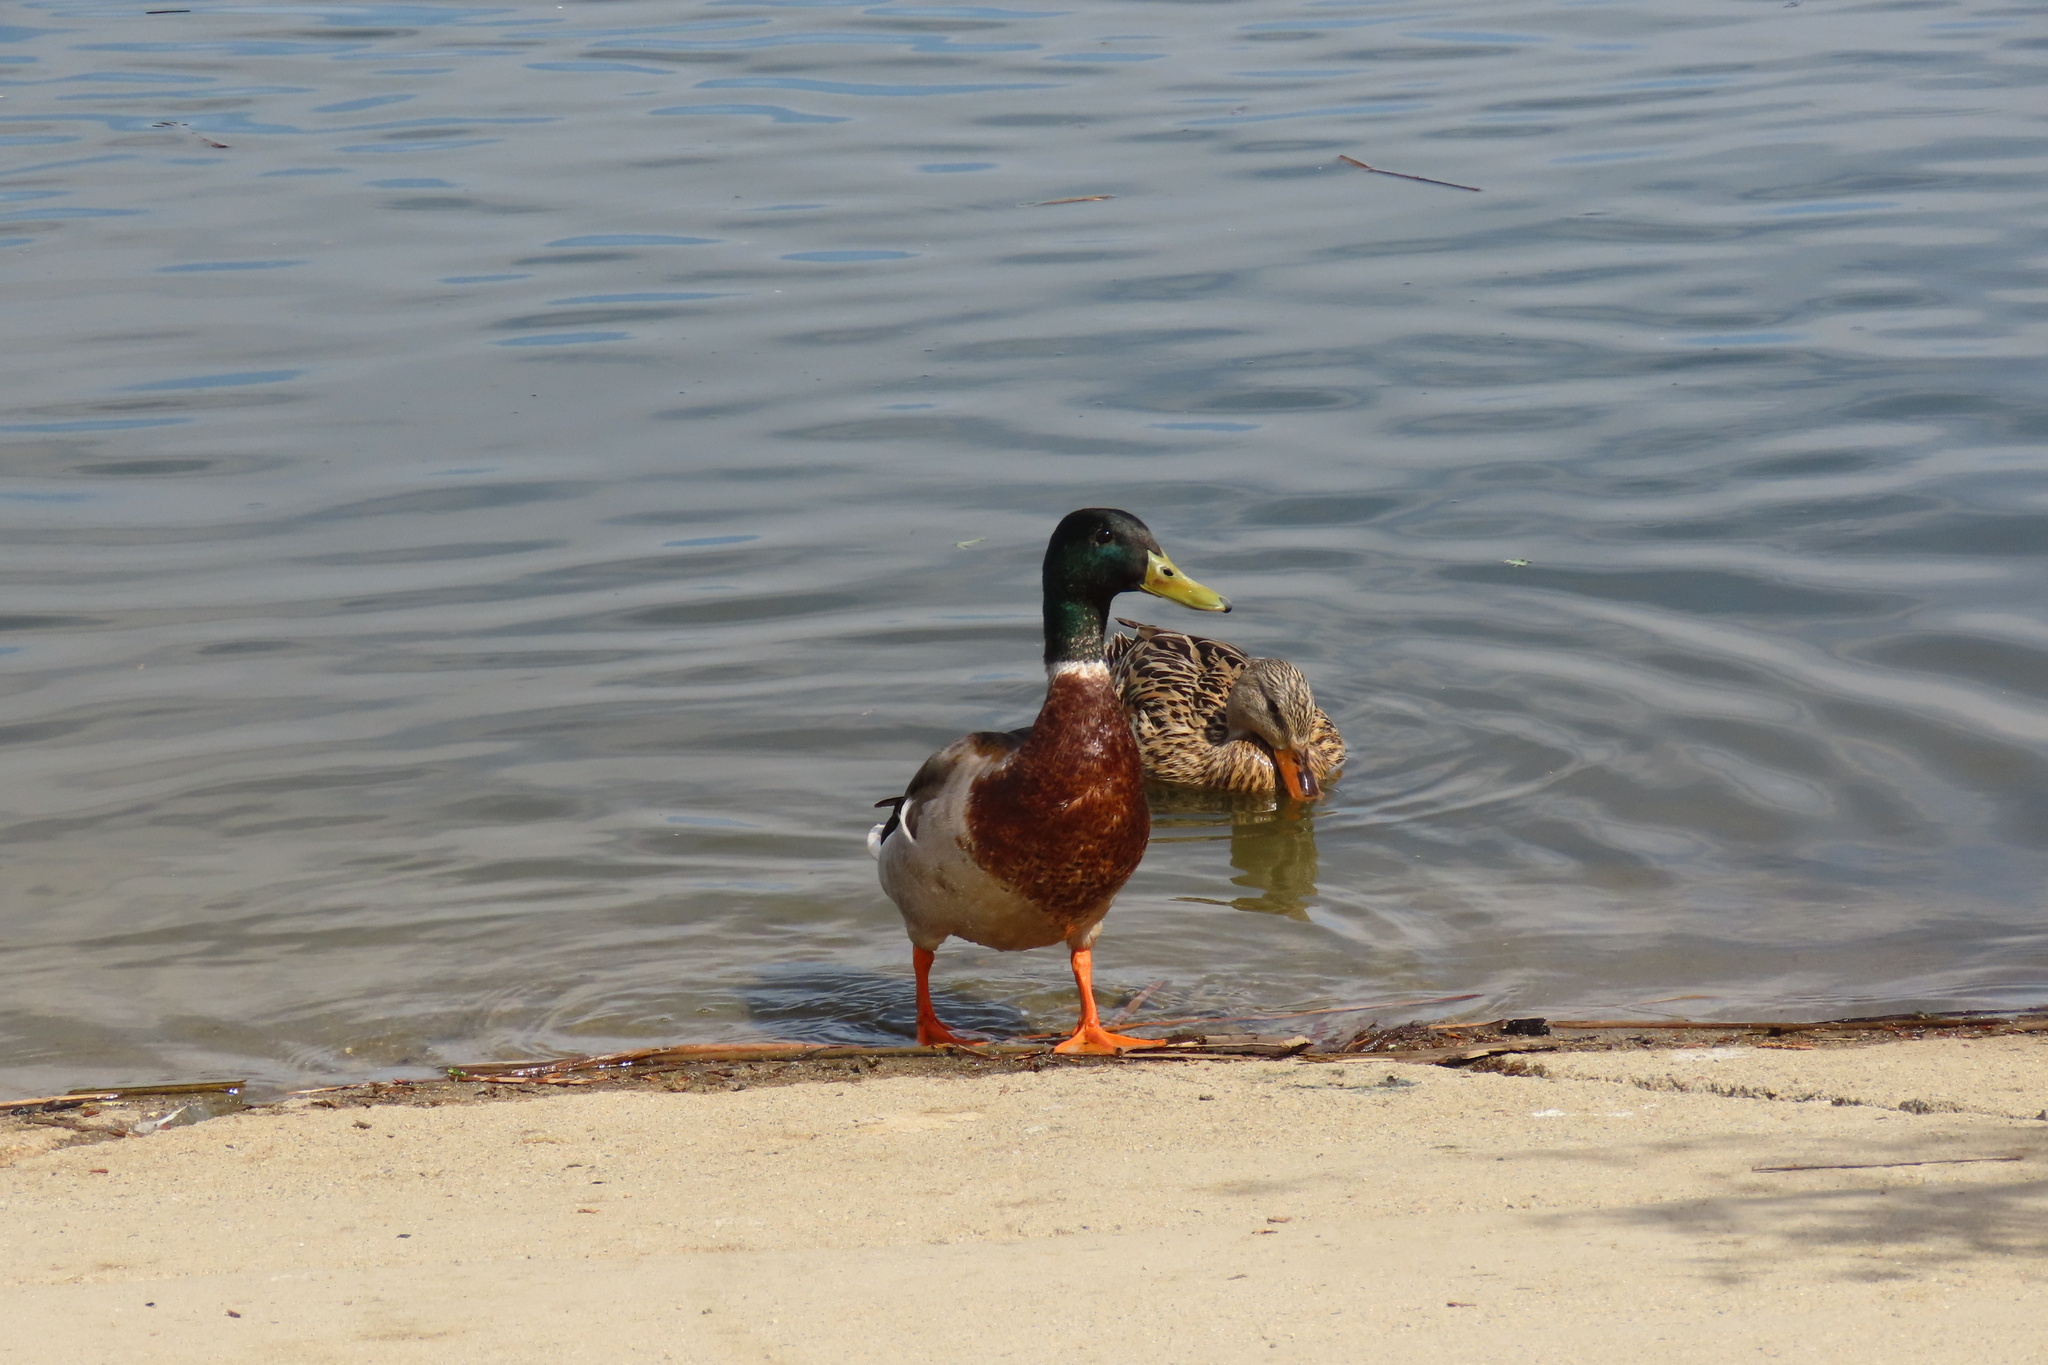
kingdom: Animalia
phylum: Chordata
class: Aves
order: Anseriformes
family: Anatidae
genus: Anas
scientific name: Anas platyrhynchos
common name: Mallard
